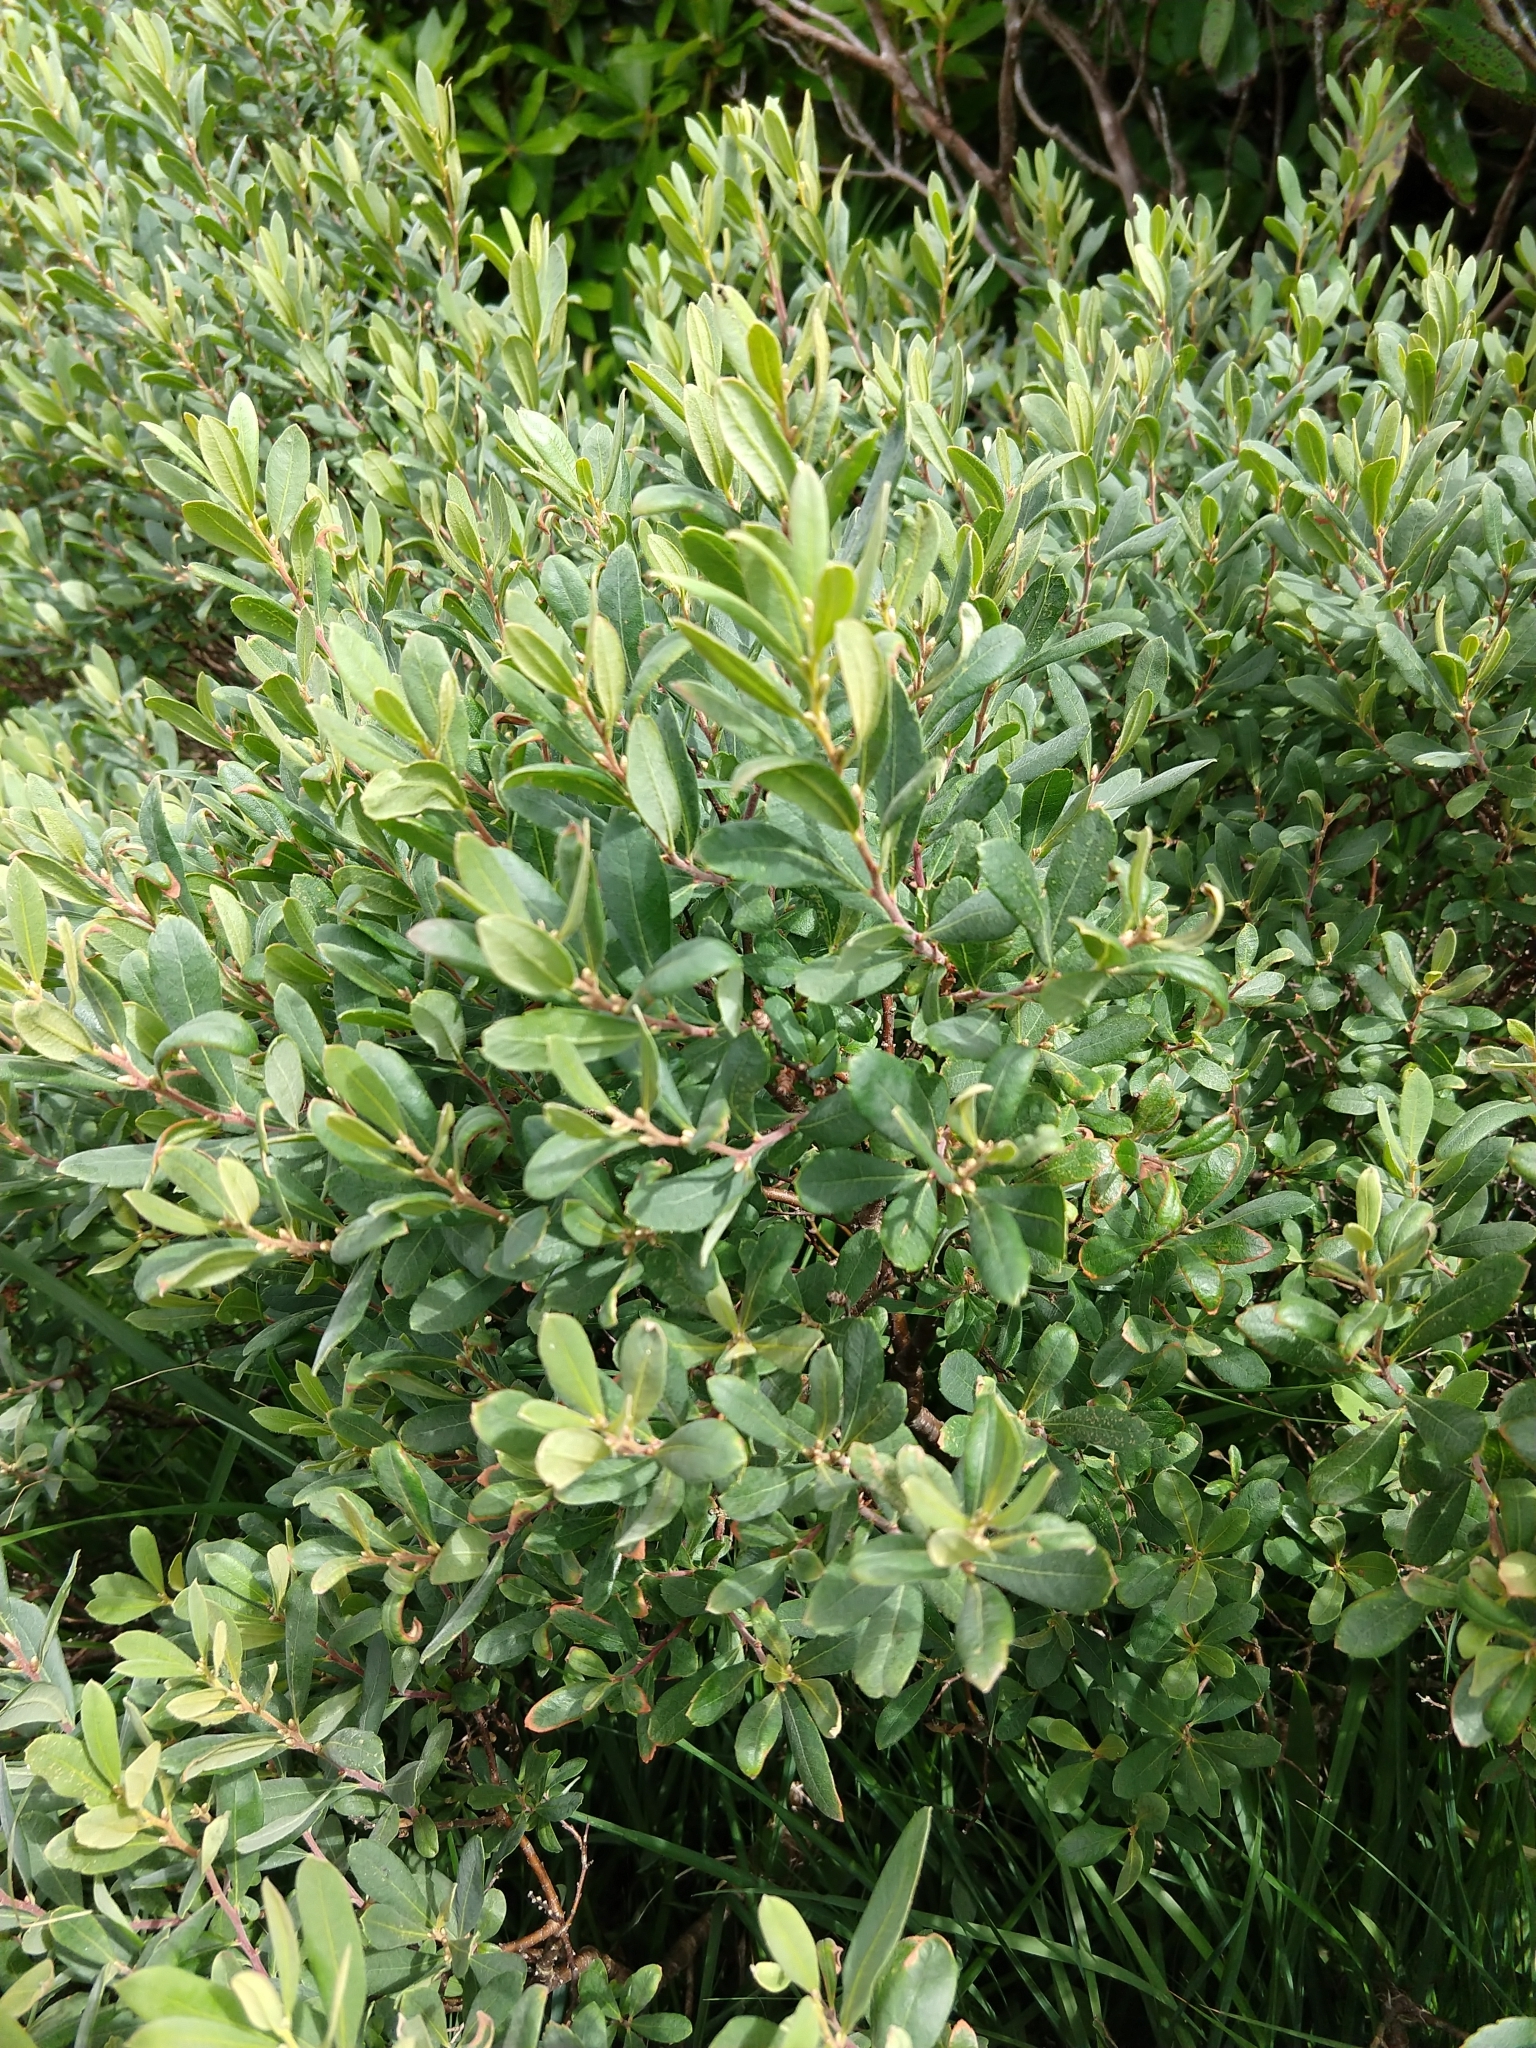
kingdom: Plantae
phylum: Tracheophyta
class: Magnoliopsida
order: Fagales
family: Myricaceae
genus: Myrica
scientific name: Myrica gale
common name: Sweet gale
